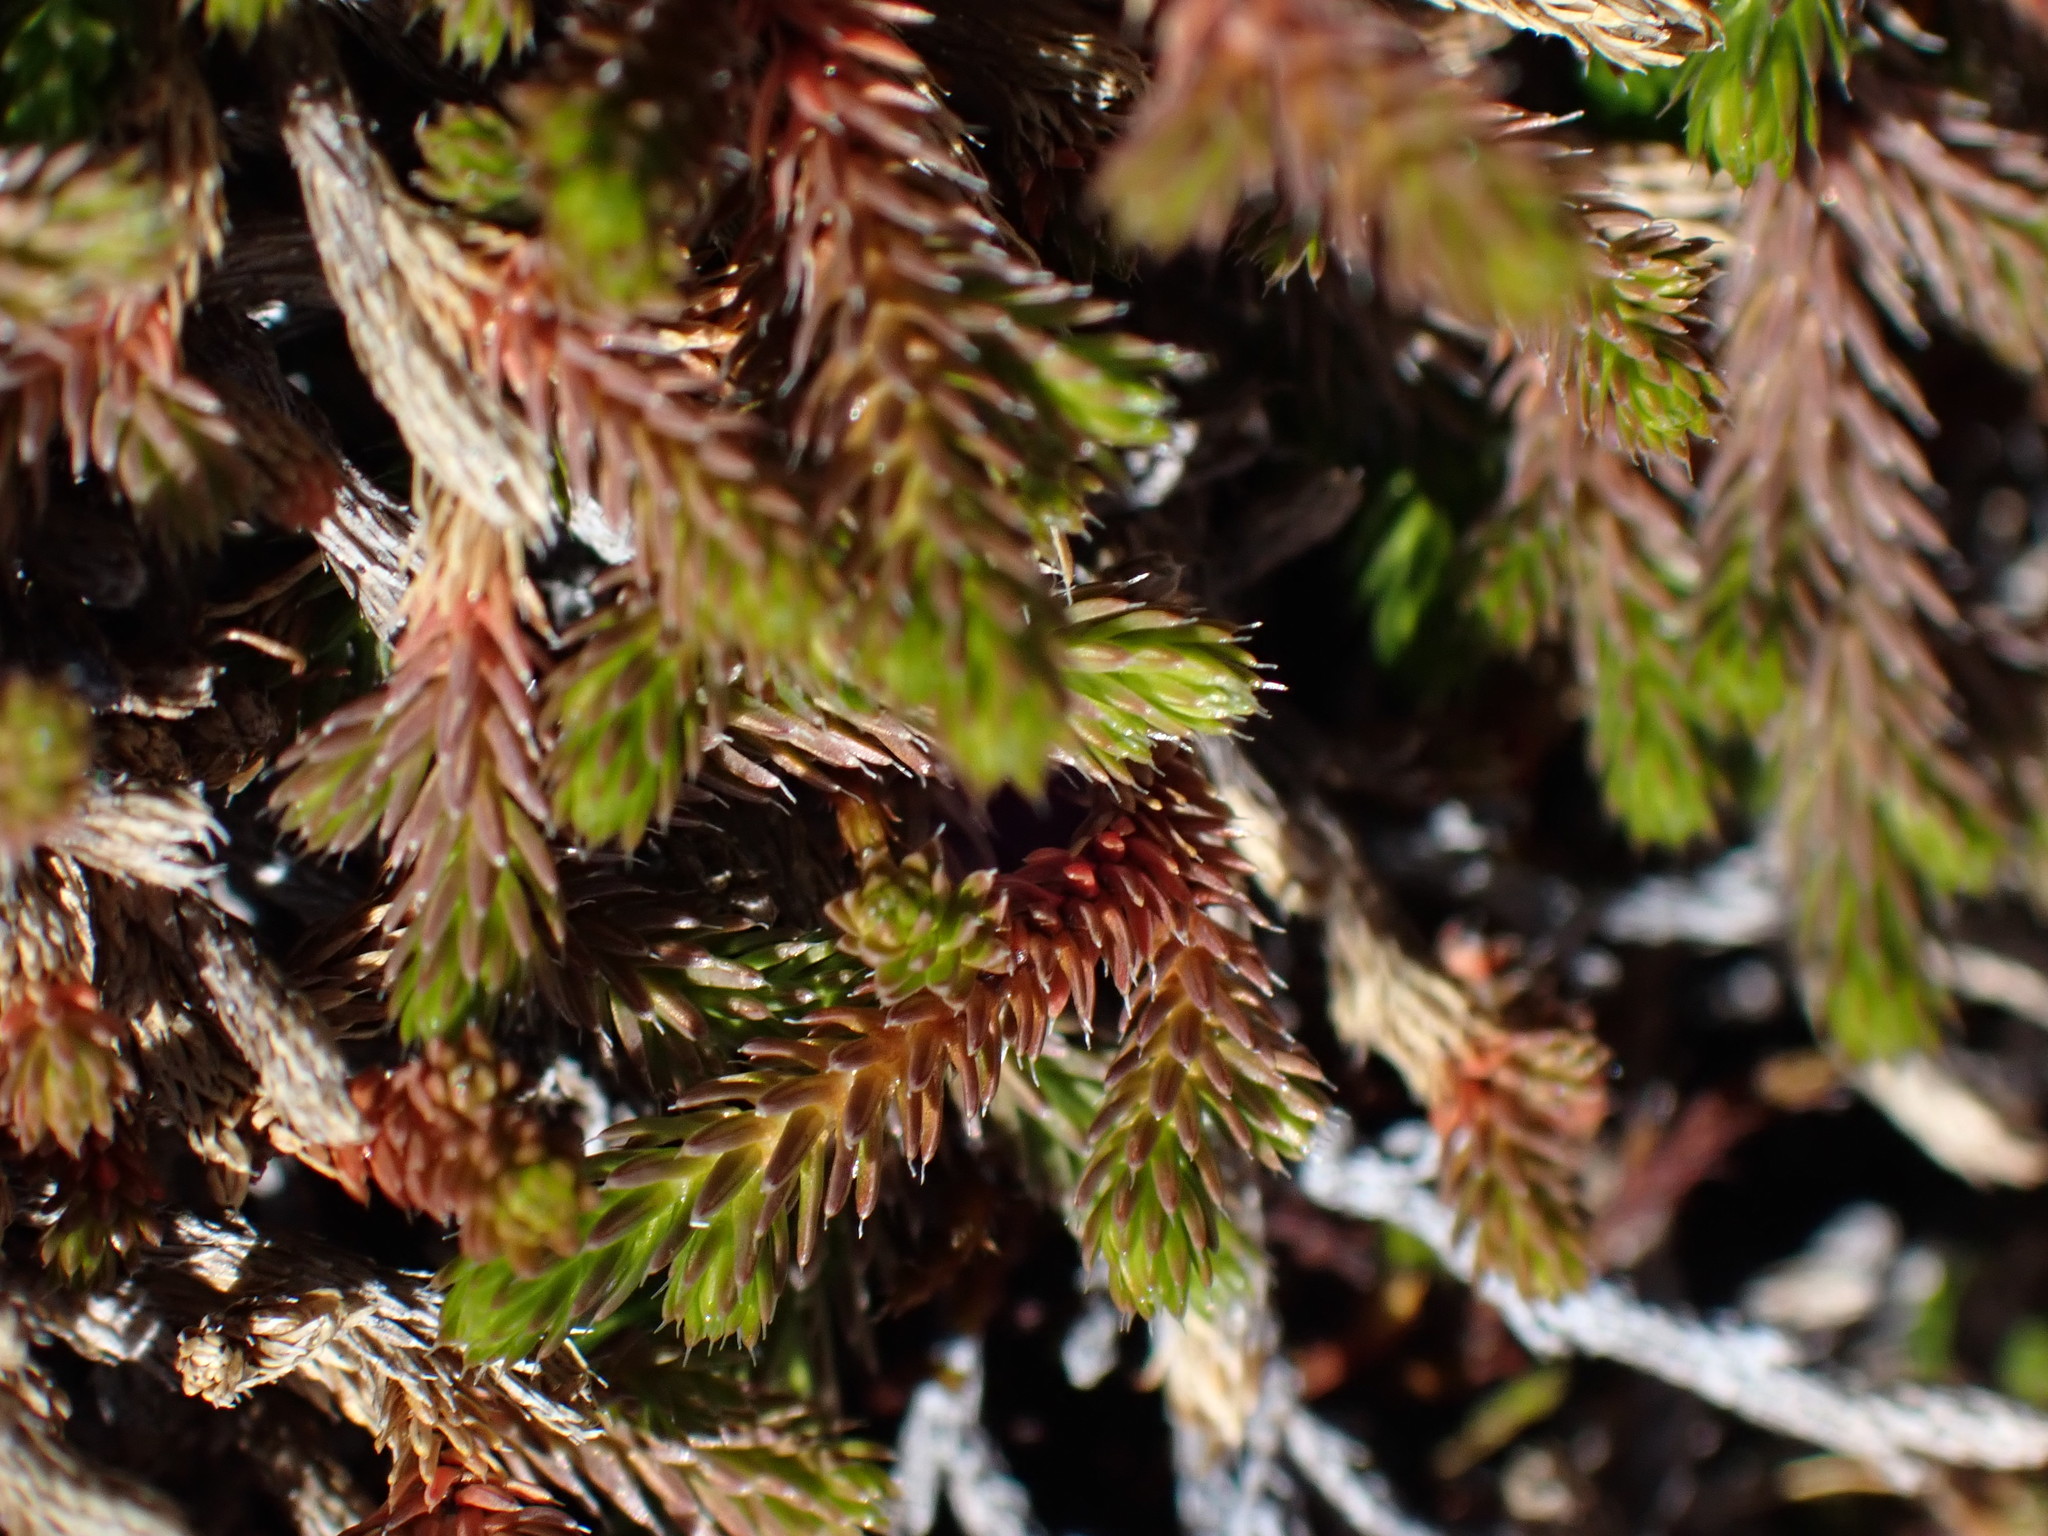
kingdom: Plantae
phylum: Tracheophyta
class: Lycopodiopsida
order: Selaginellales
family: Selaginellaceae
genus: Selaginella
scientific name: Selaginella wallacei
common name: Wallace's selaginella
